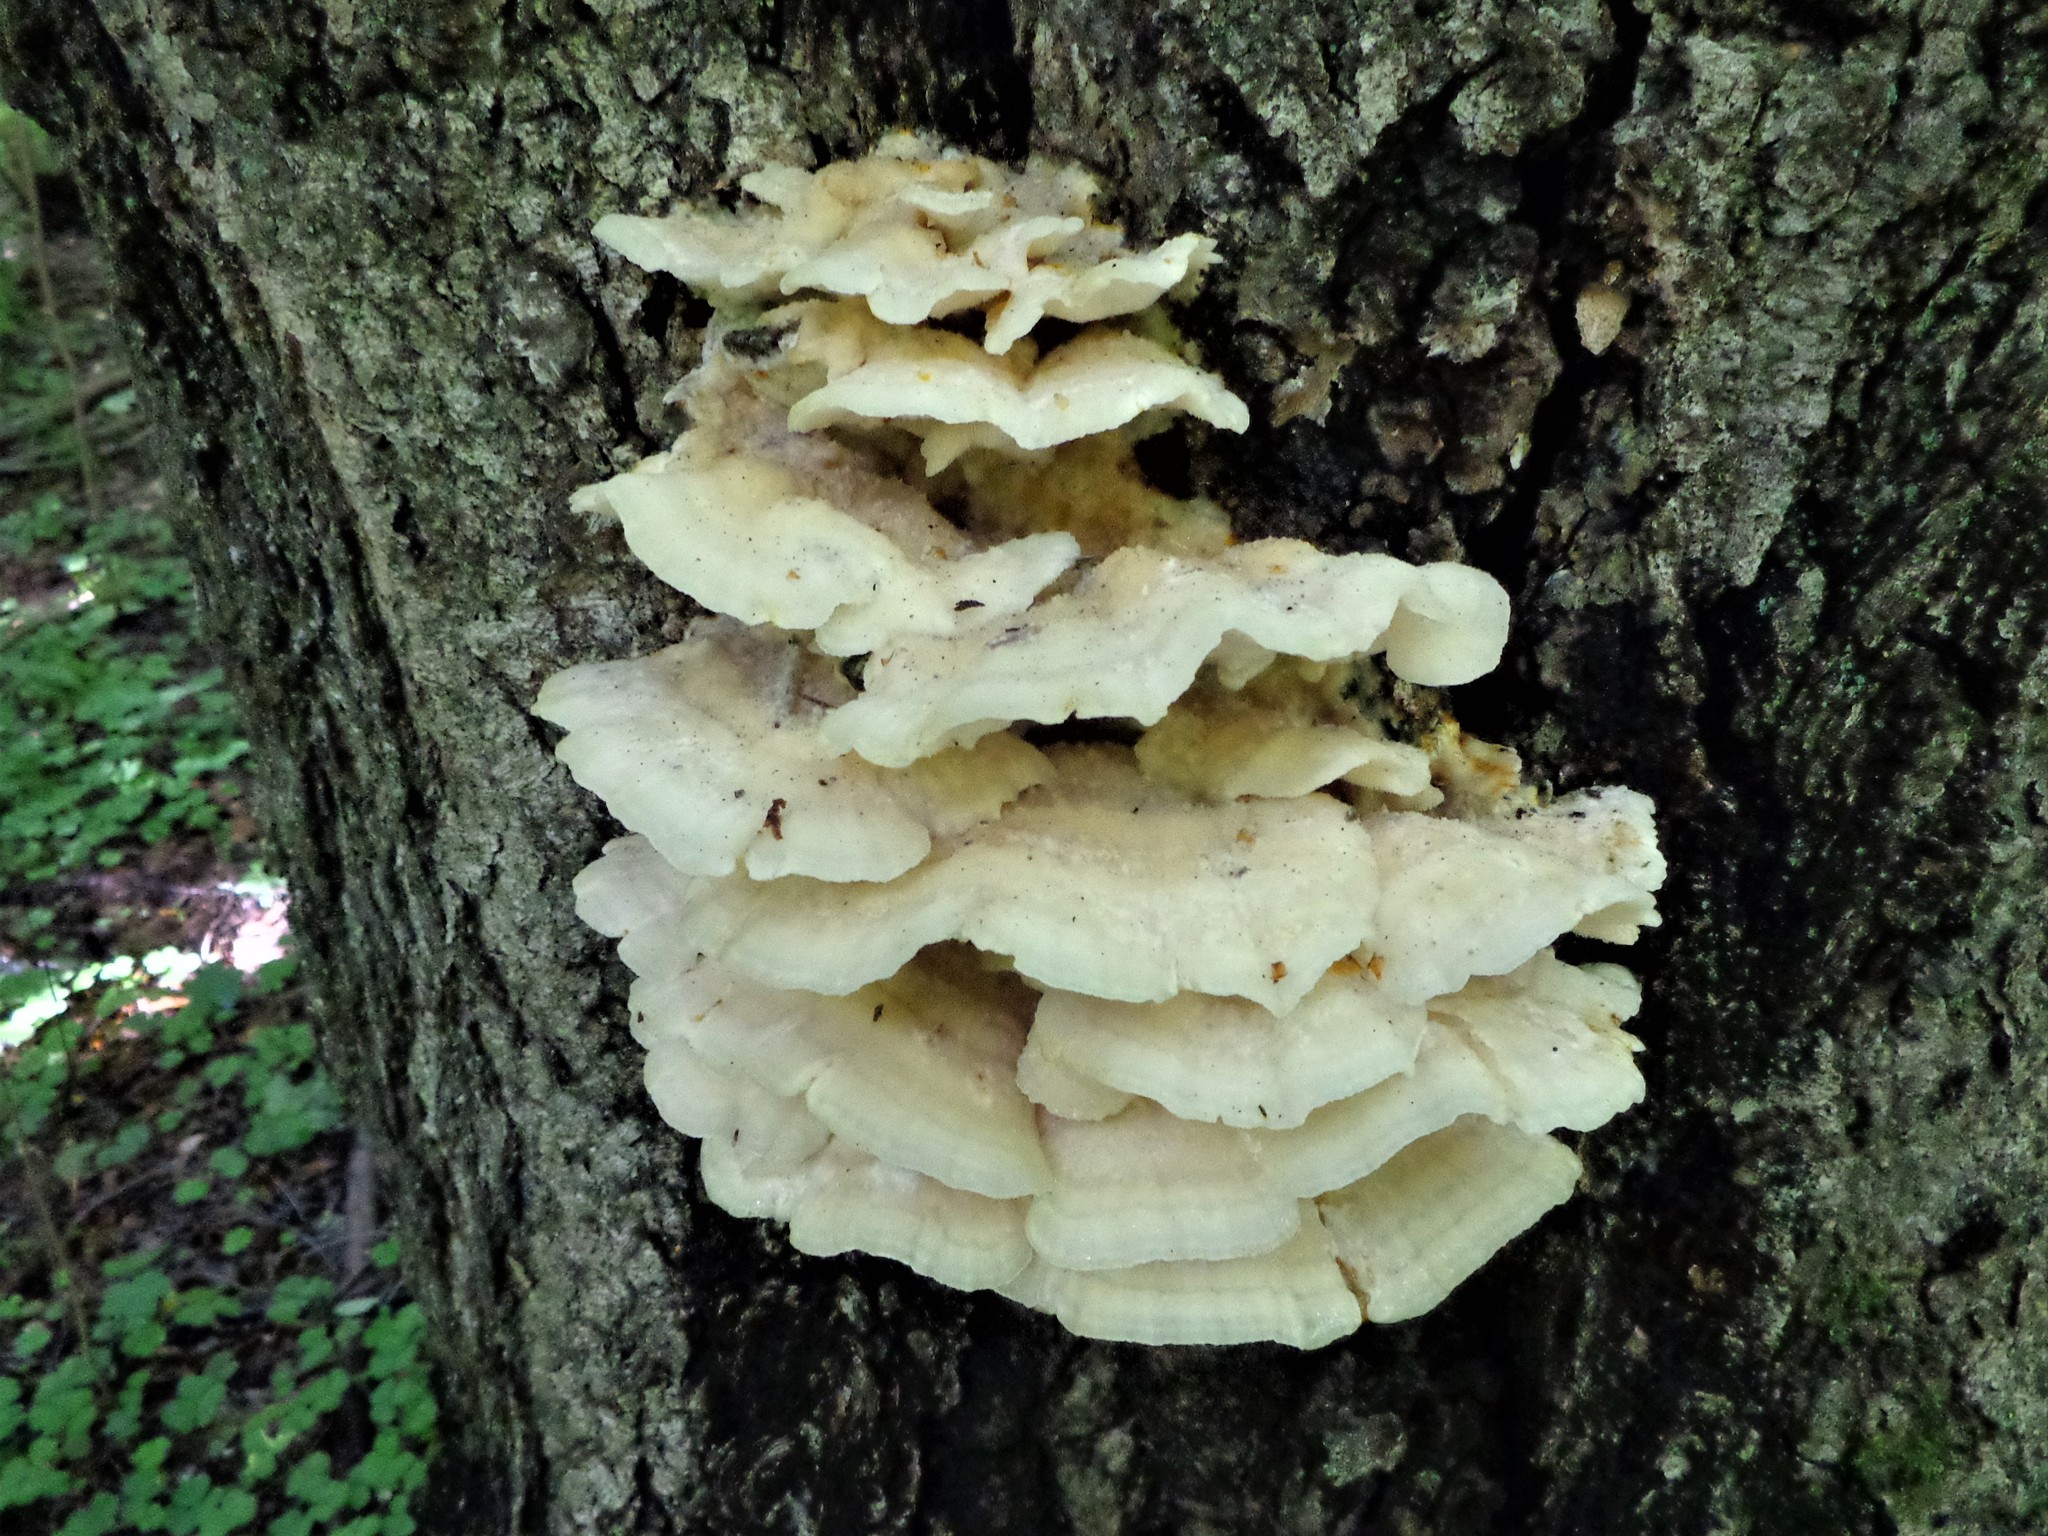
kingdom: Fungi
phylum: Basidiomycota
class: Agaricomycetes
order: Polyporales
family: Meruliaceae
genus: Climacodon
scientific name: Climacodon septentrionalis
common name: Northern tooth
